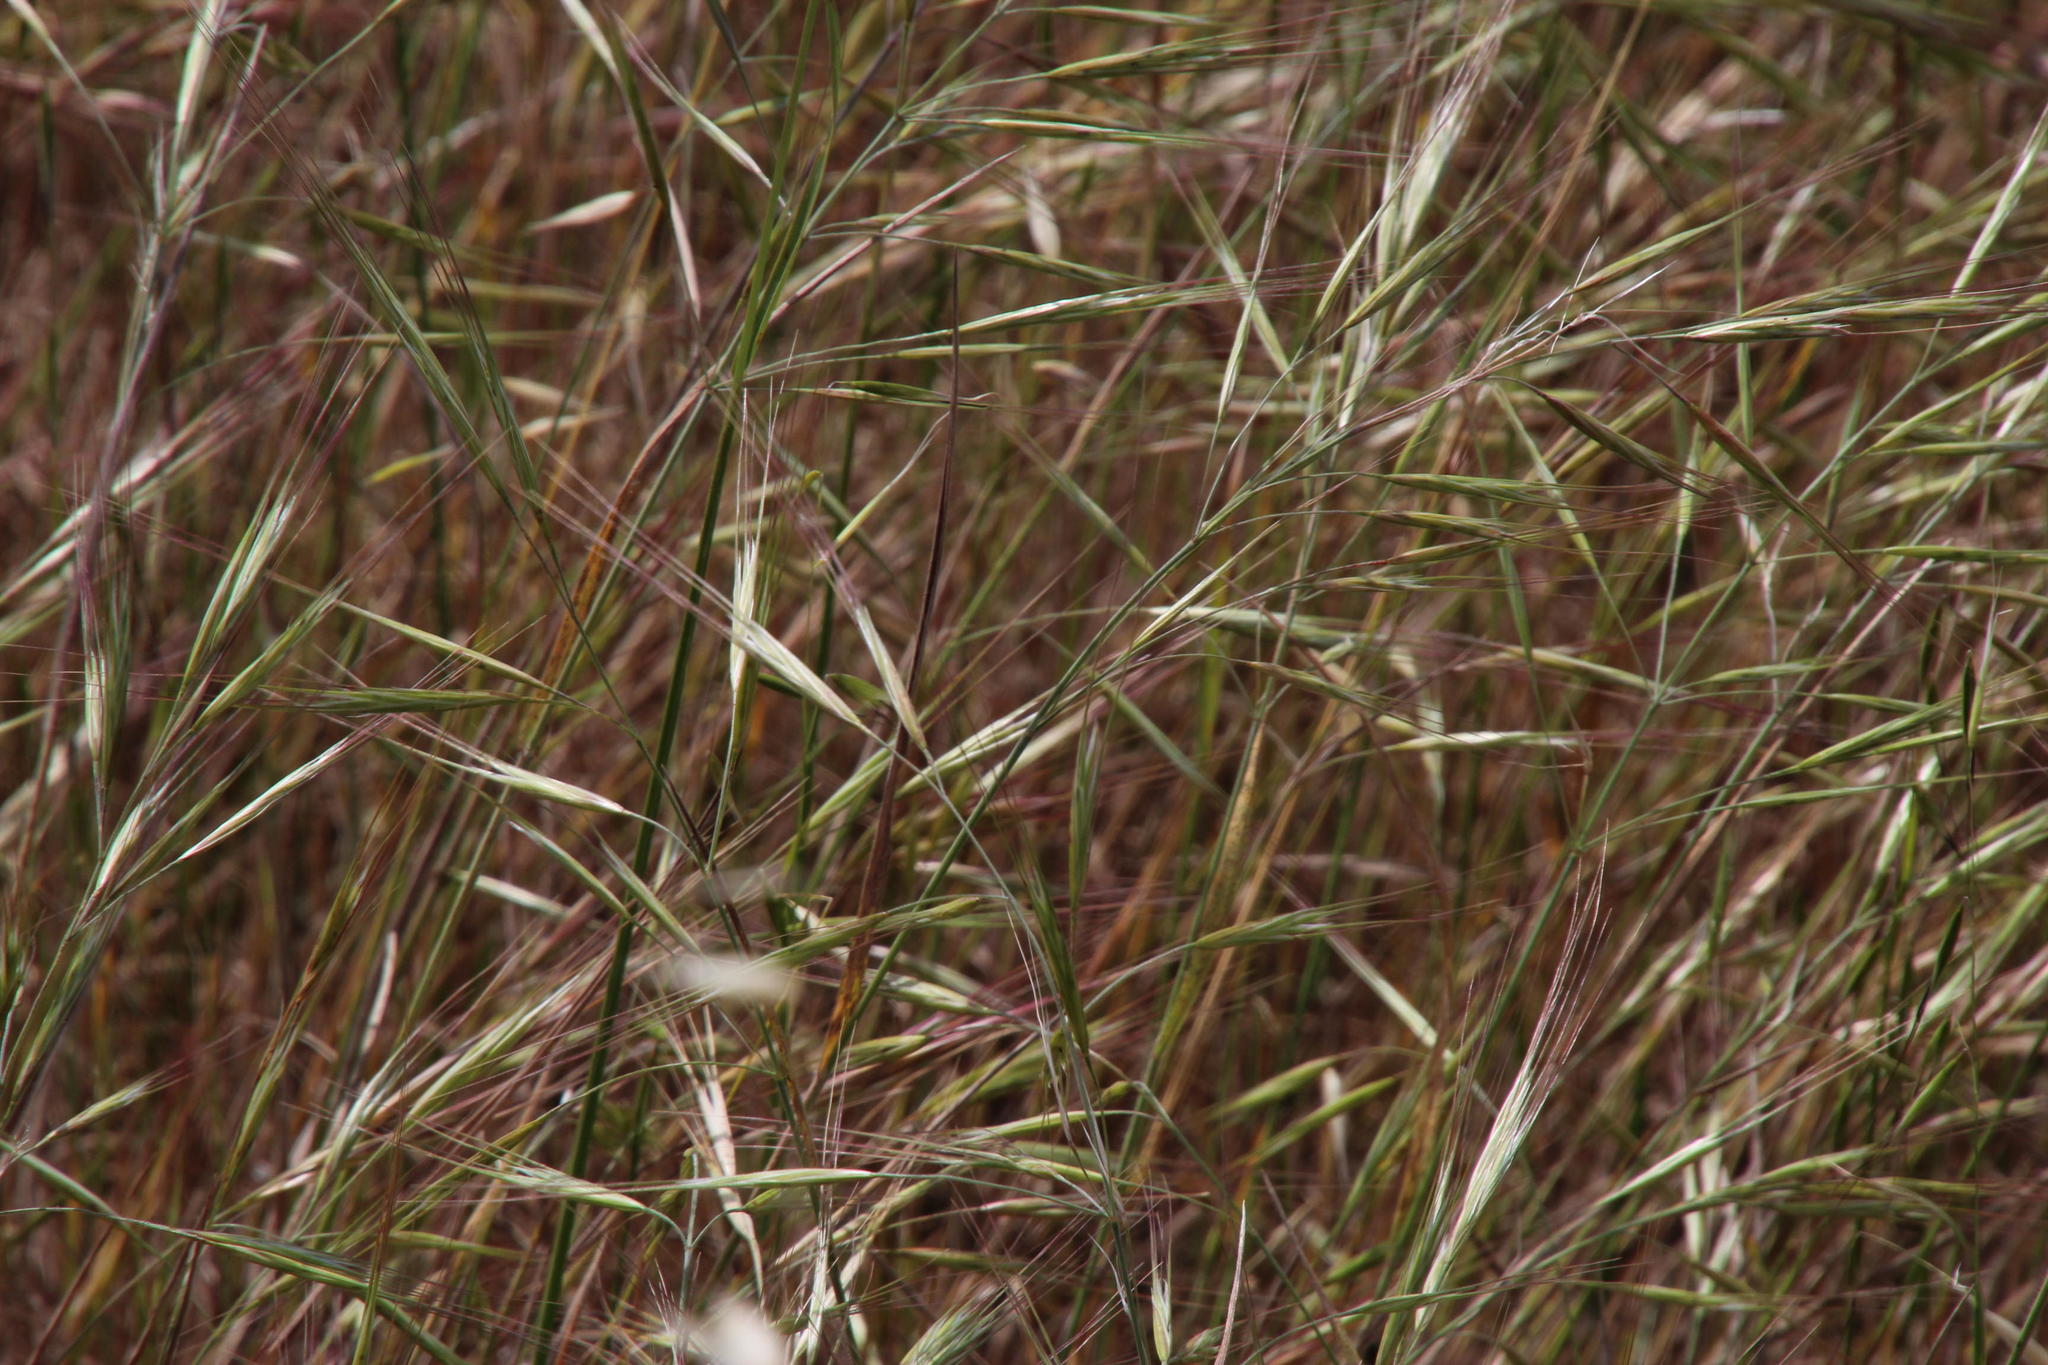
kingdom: Plantae
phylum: Tracheophyta
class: Liliopsida
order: Poales
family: Poaceae
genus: Bromus
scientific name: Bromus rigidus
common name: Ripgut brome
